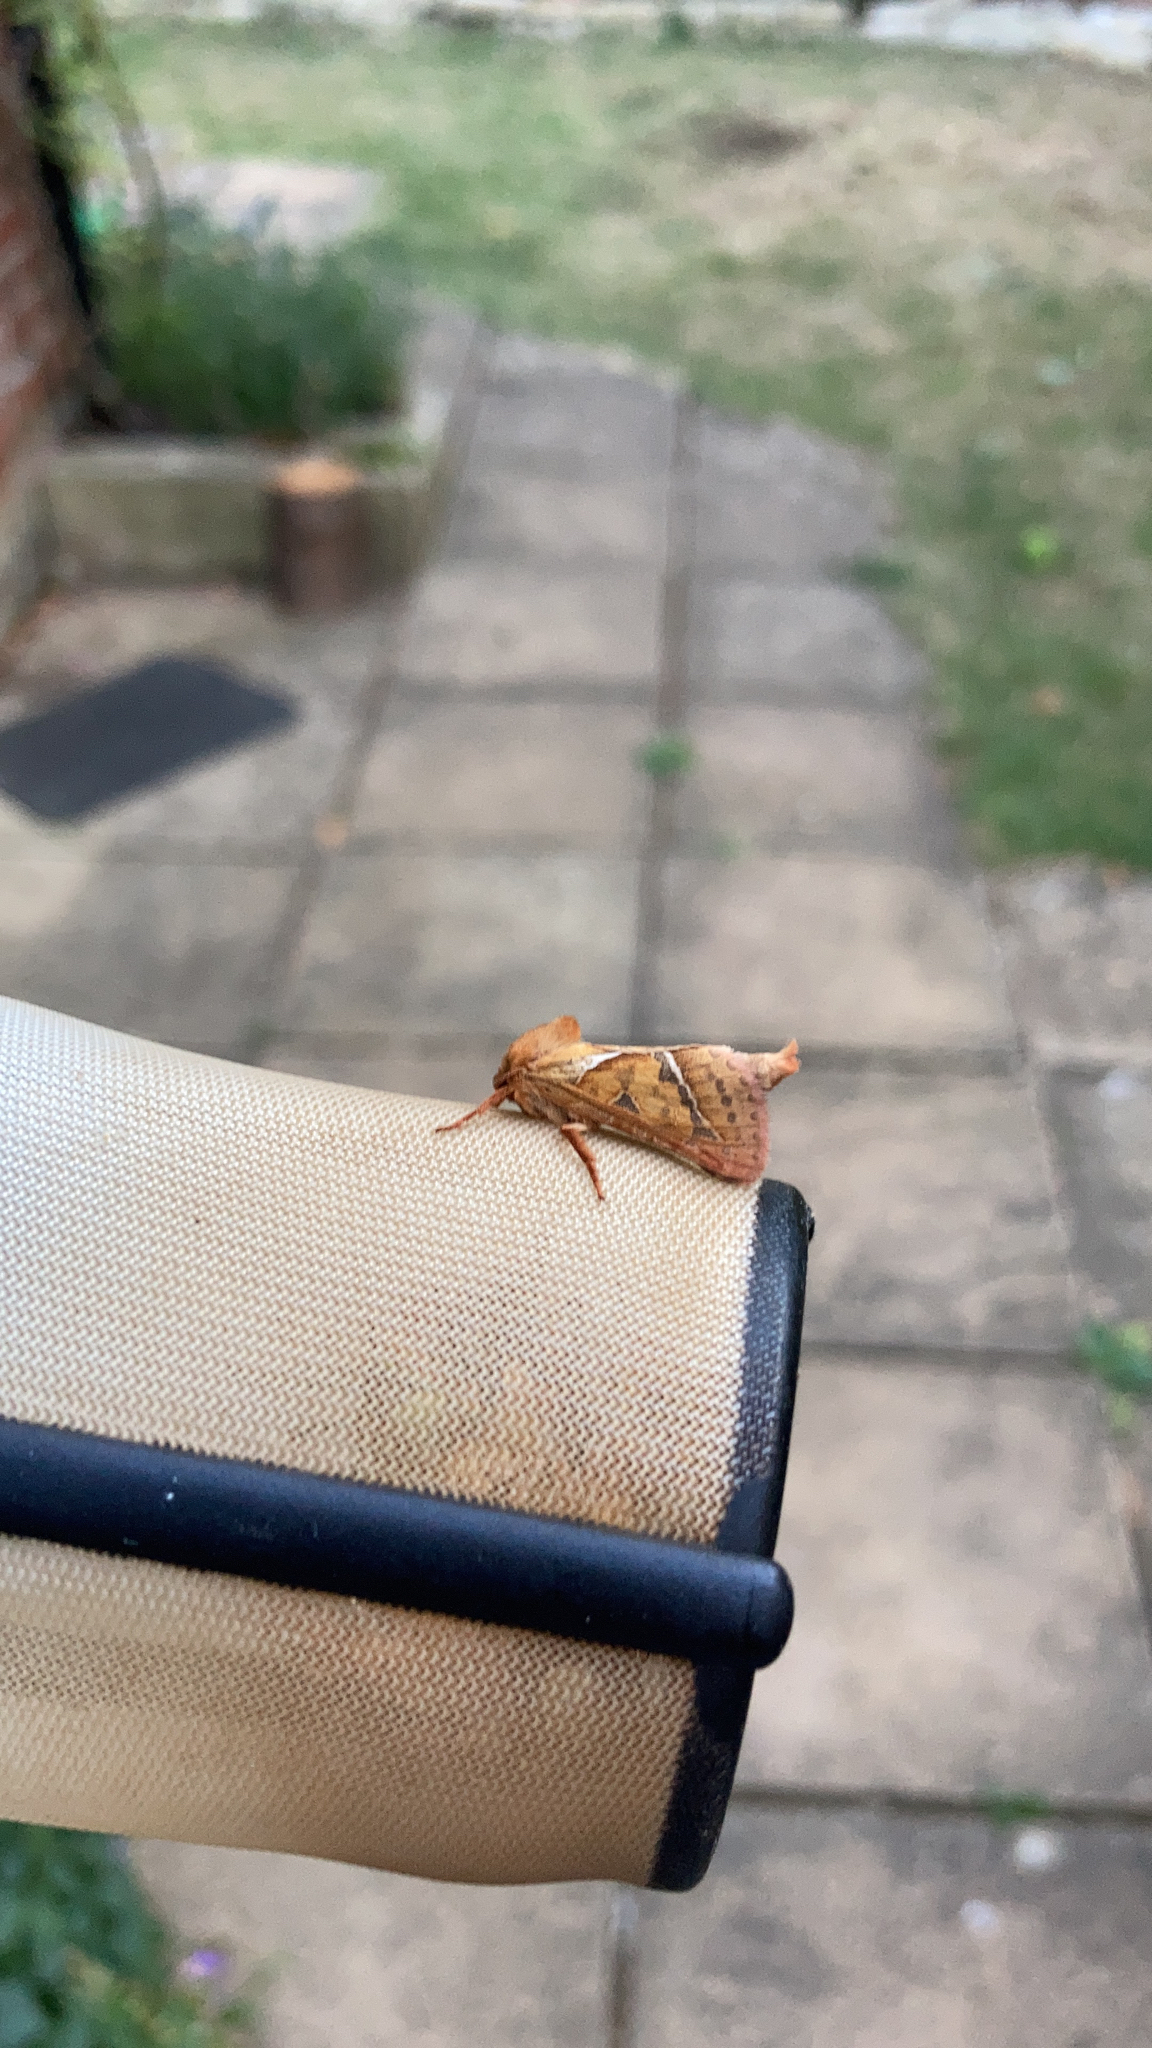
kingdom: Animalia
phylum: Arthropoda
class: Insecta
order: Lepidoptera
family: Hepialidae
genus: Triodia
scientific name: Triodia sylvina
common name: Orange swift
